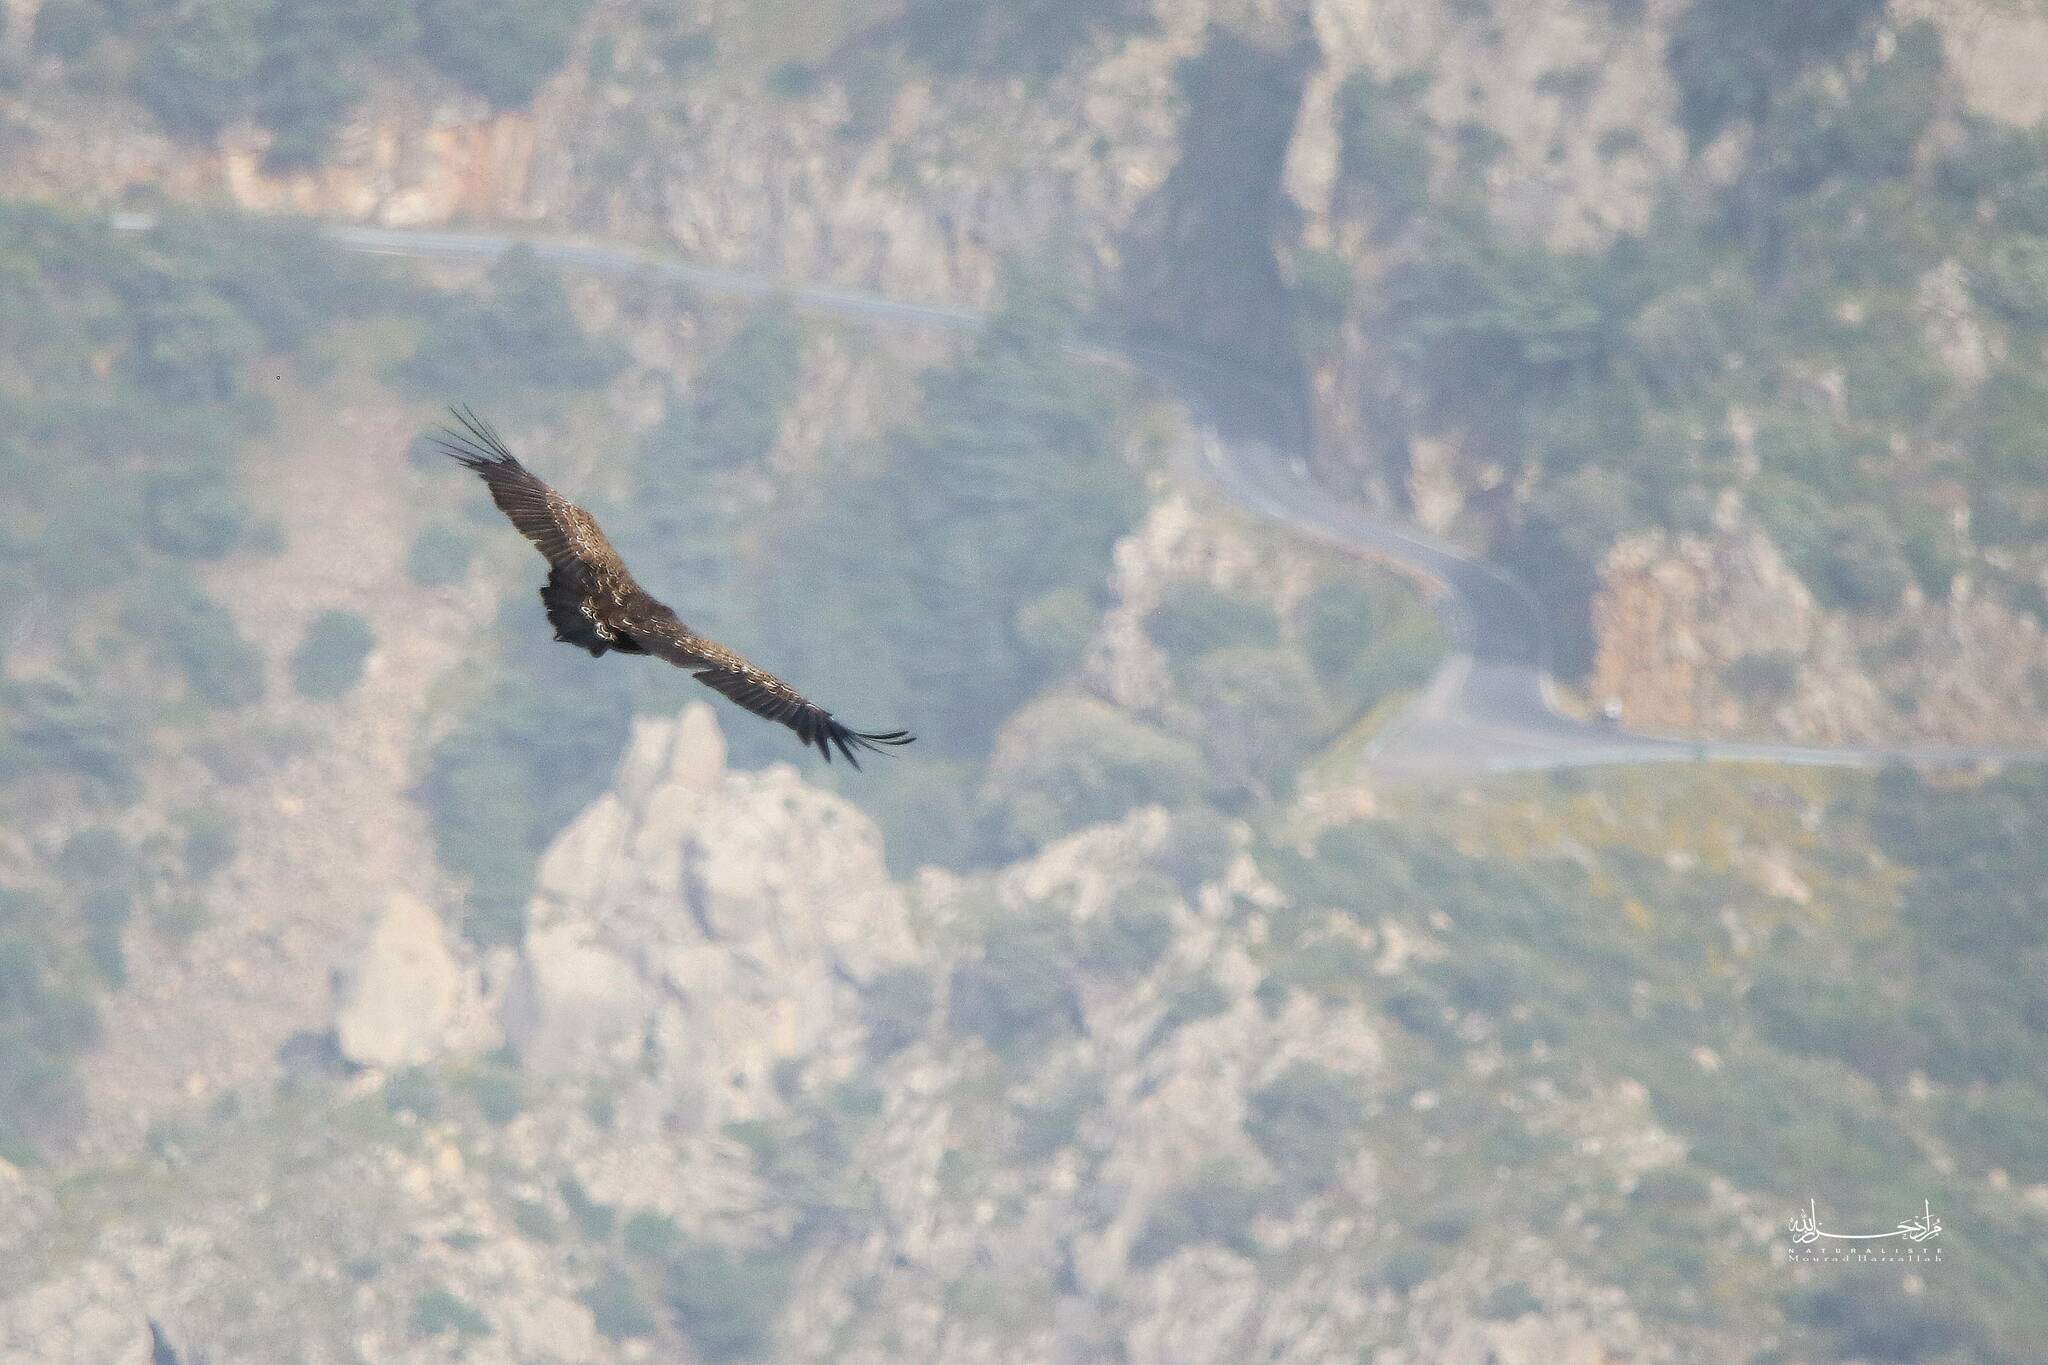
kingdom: Animalia
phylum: Chordata
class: Aves
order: Accipitriformes
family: Accipitridae
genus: Gyps
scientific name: Gyps rueppellii
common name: Rüppell's vulture
